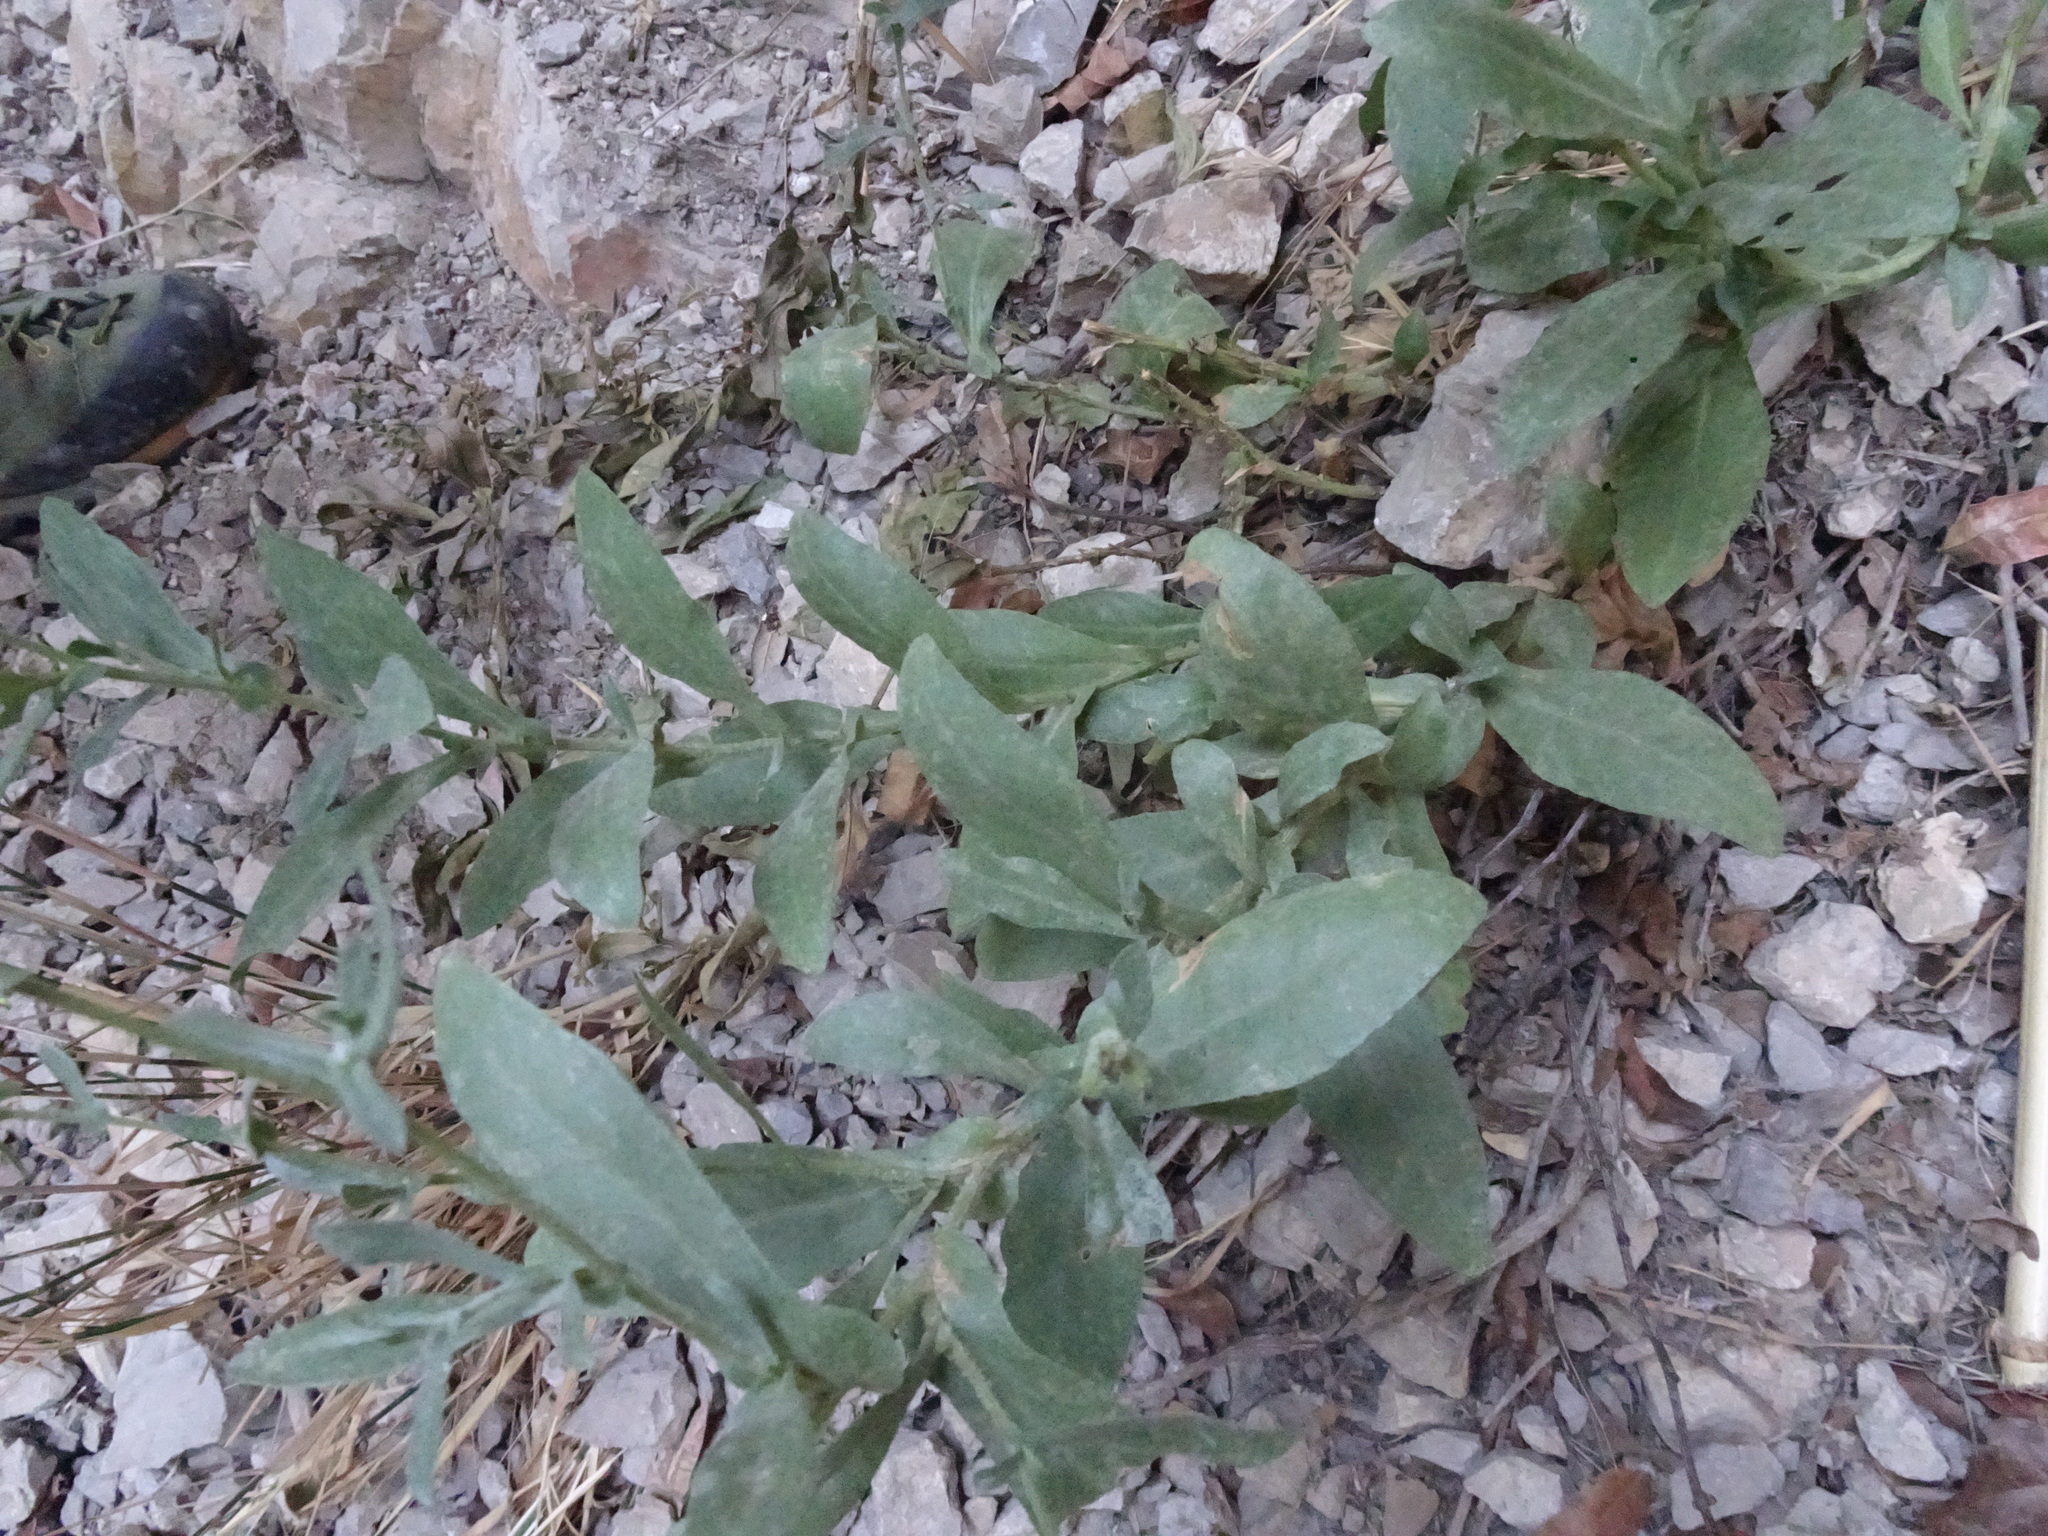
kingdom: Plantae
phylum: Tracheophyta
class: Magnoliopsida
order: Caryophyllales
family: Plumbaginaceae
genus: Plumbago
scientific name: Plumbago europaea
